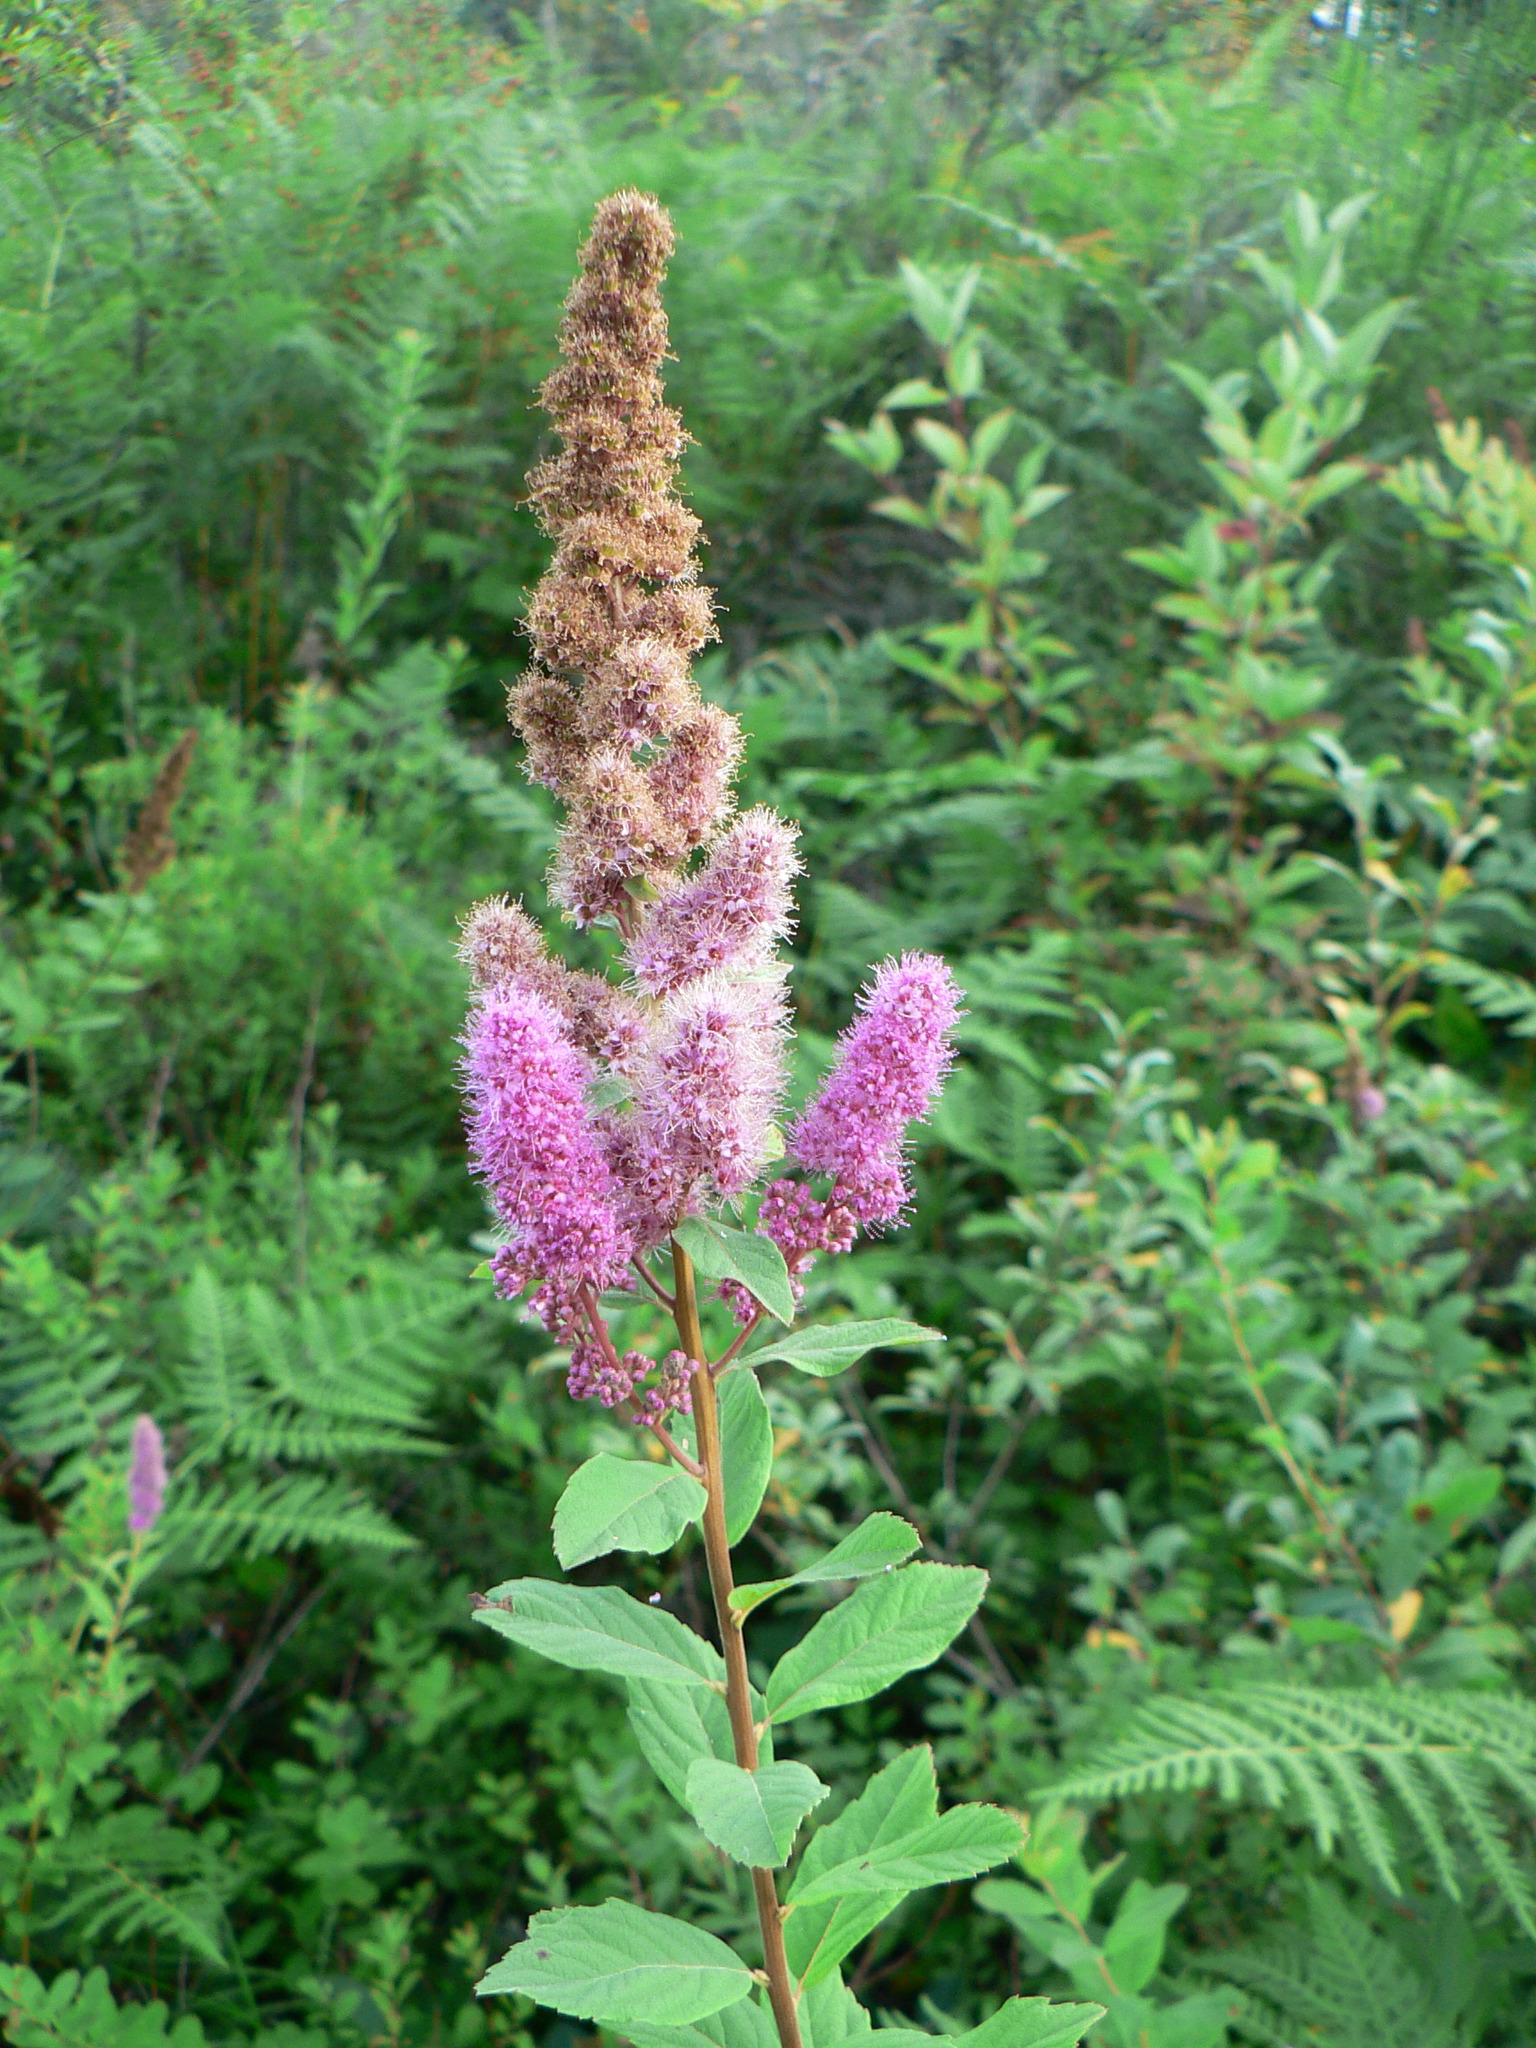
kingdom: Plantae
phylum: Tracheophyta
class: Magnoliopsida
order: Rosales
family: Rosaceae
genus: Spiraea
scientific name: Spiraea douglasii
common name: Steeplebush
